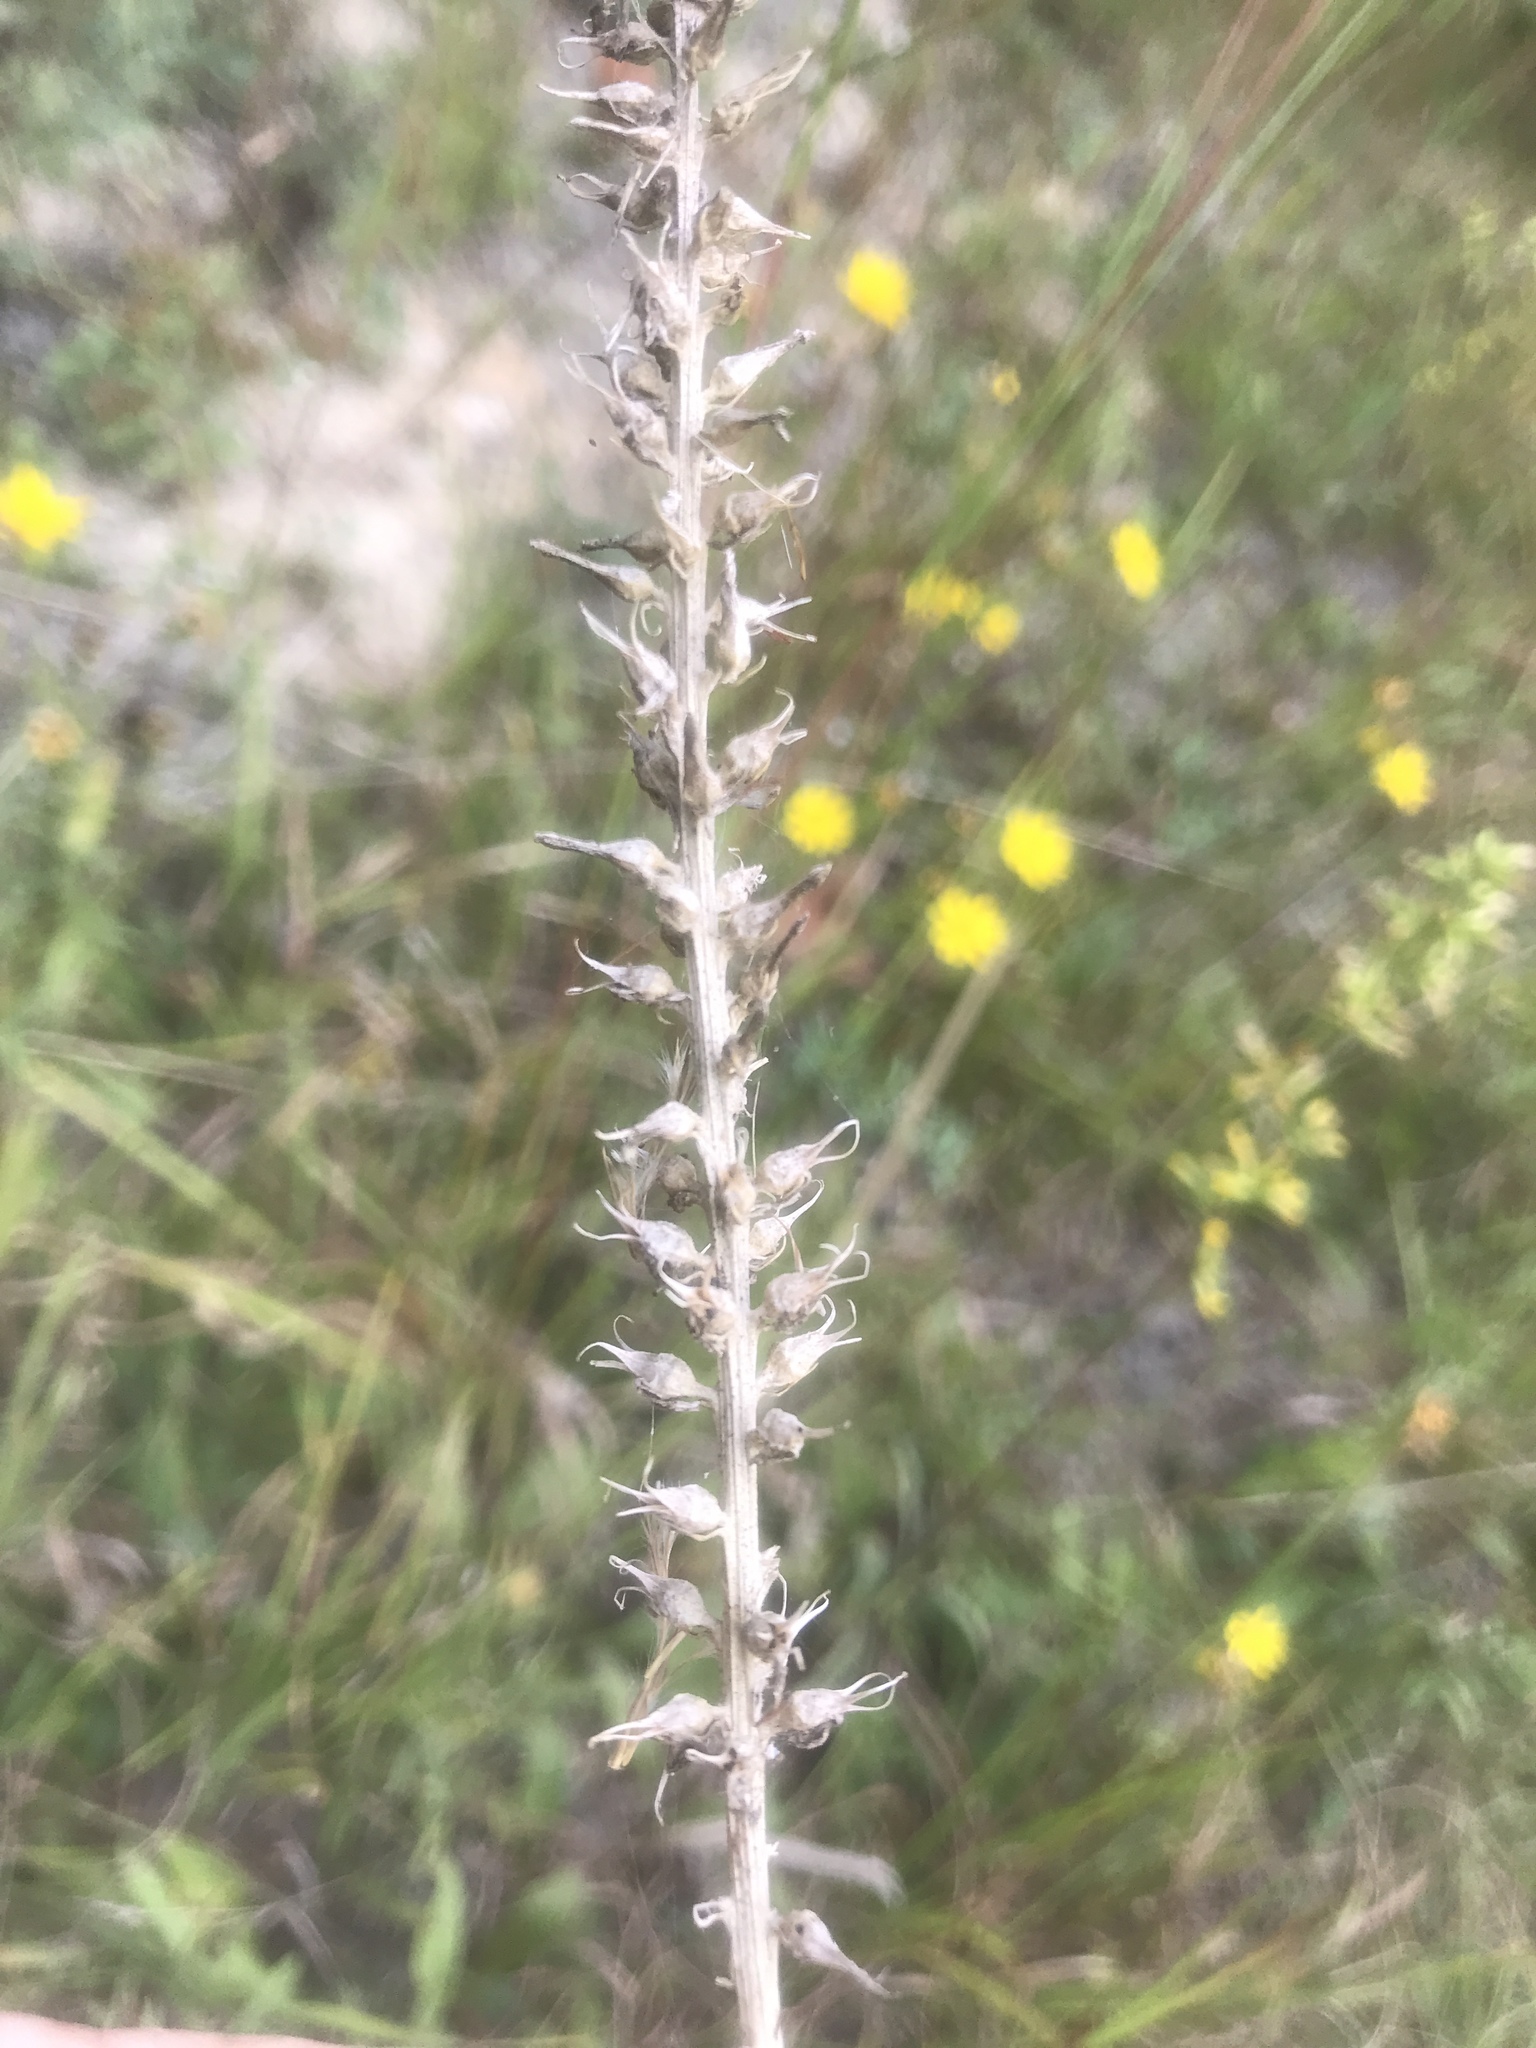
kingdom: Plantae
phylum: Tracheophyta
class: Liliopsida
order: Dioscoreales
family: Nartheciaceae
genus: Aletris
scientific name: Aletris farinosa
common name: Colicroot
